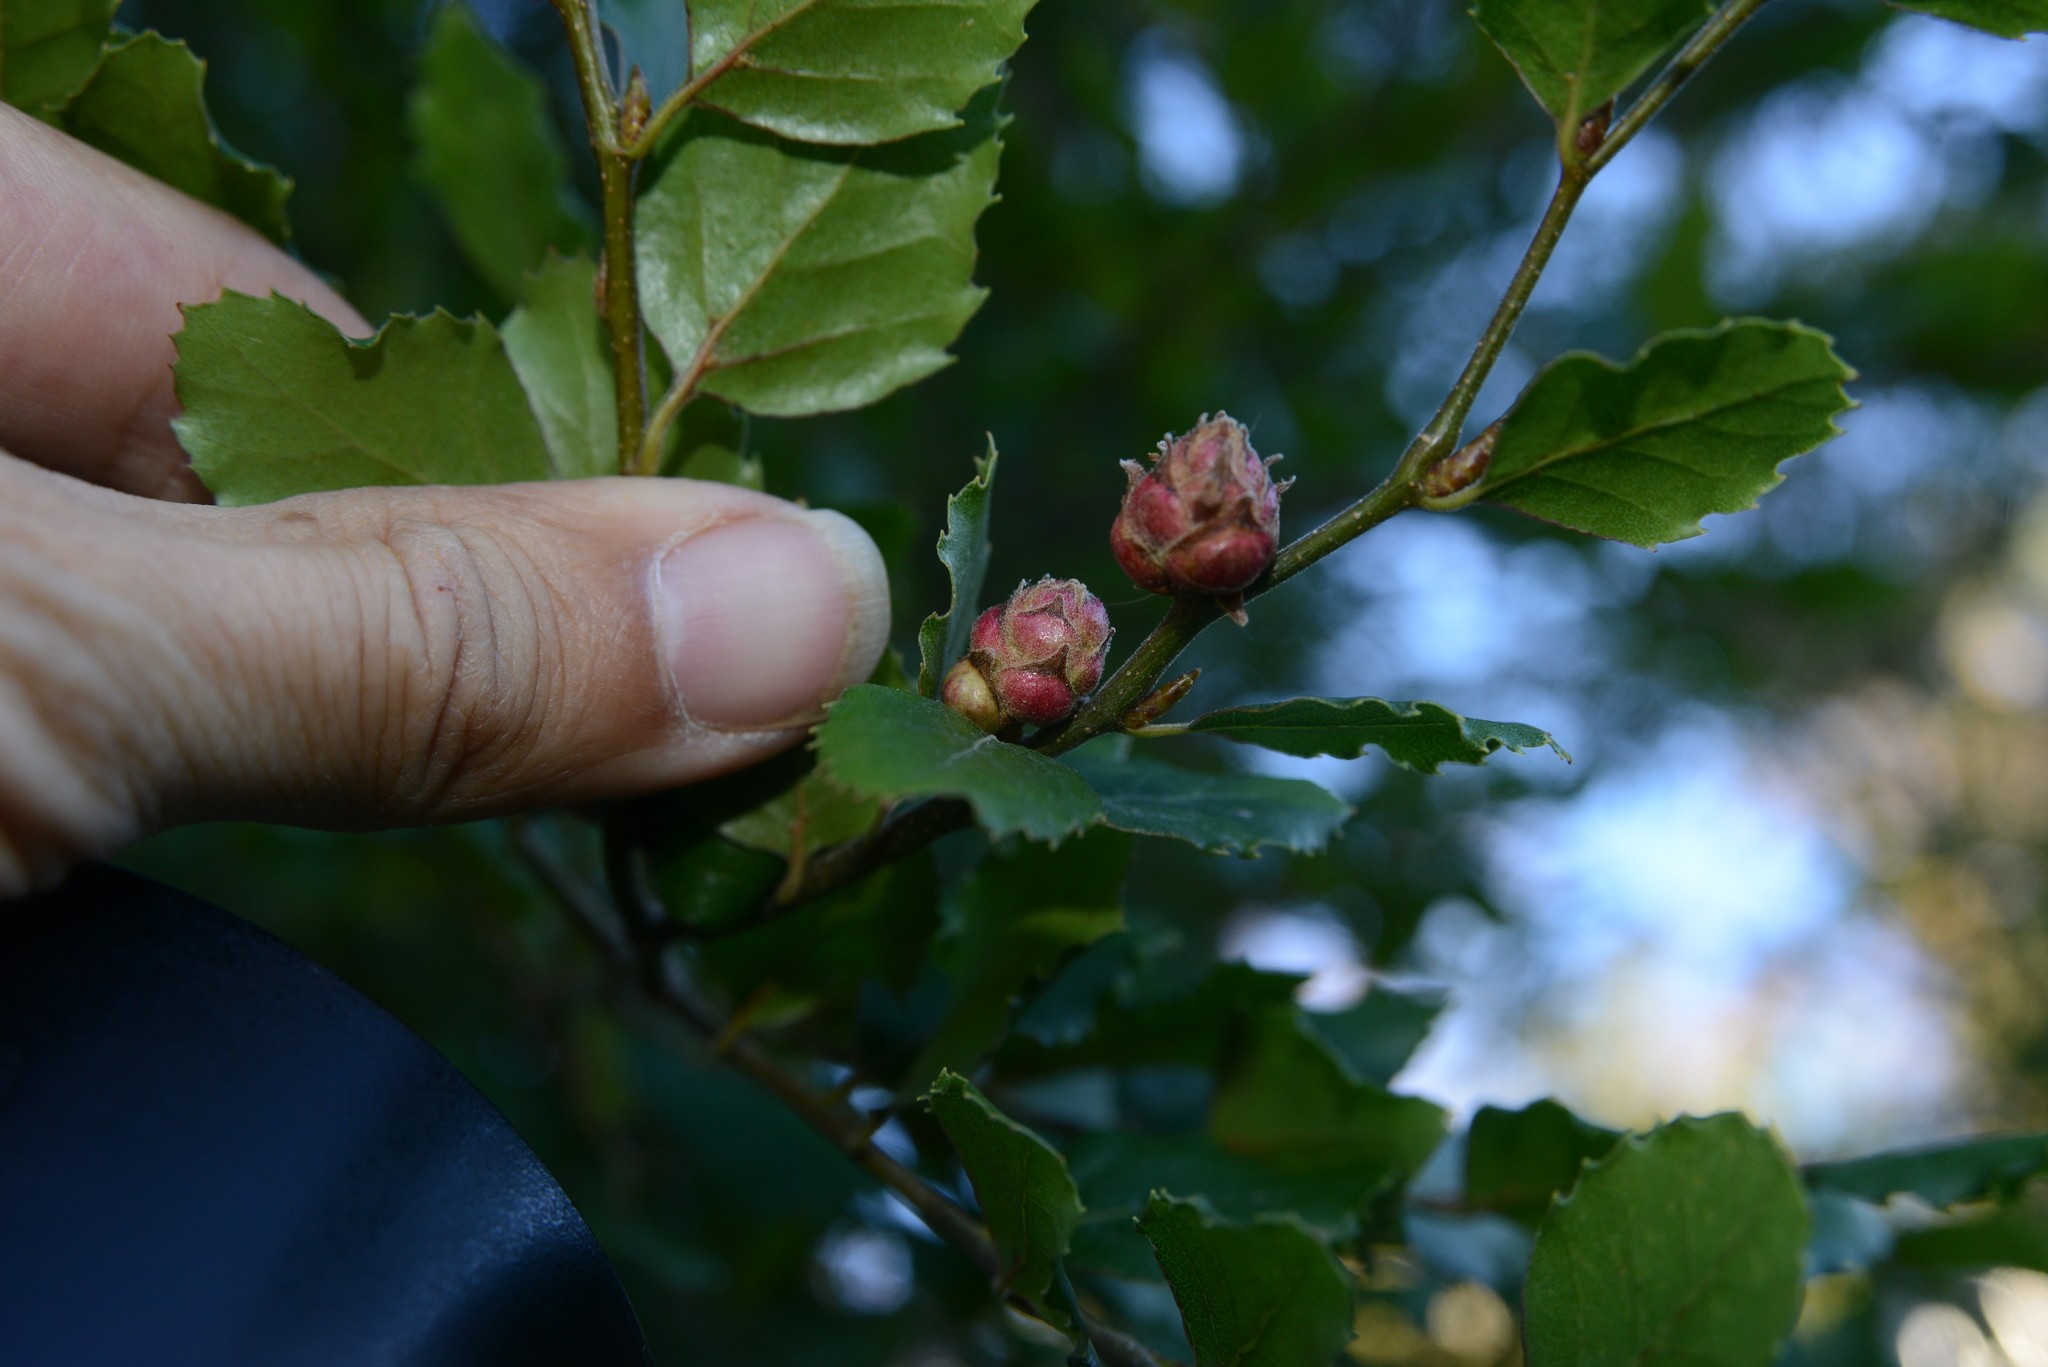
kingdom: Animalia
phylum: Arthropoda
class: Arachnida
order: Trombidiformes
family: Eriophyidae
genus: Acalitus
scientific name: Acalitus morrisoni
